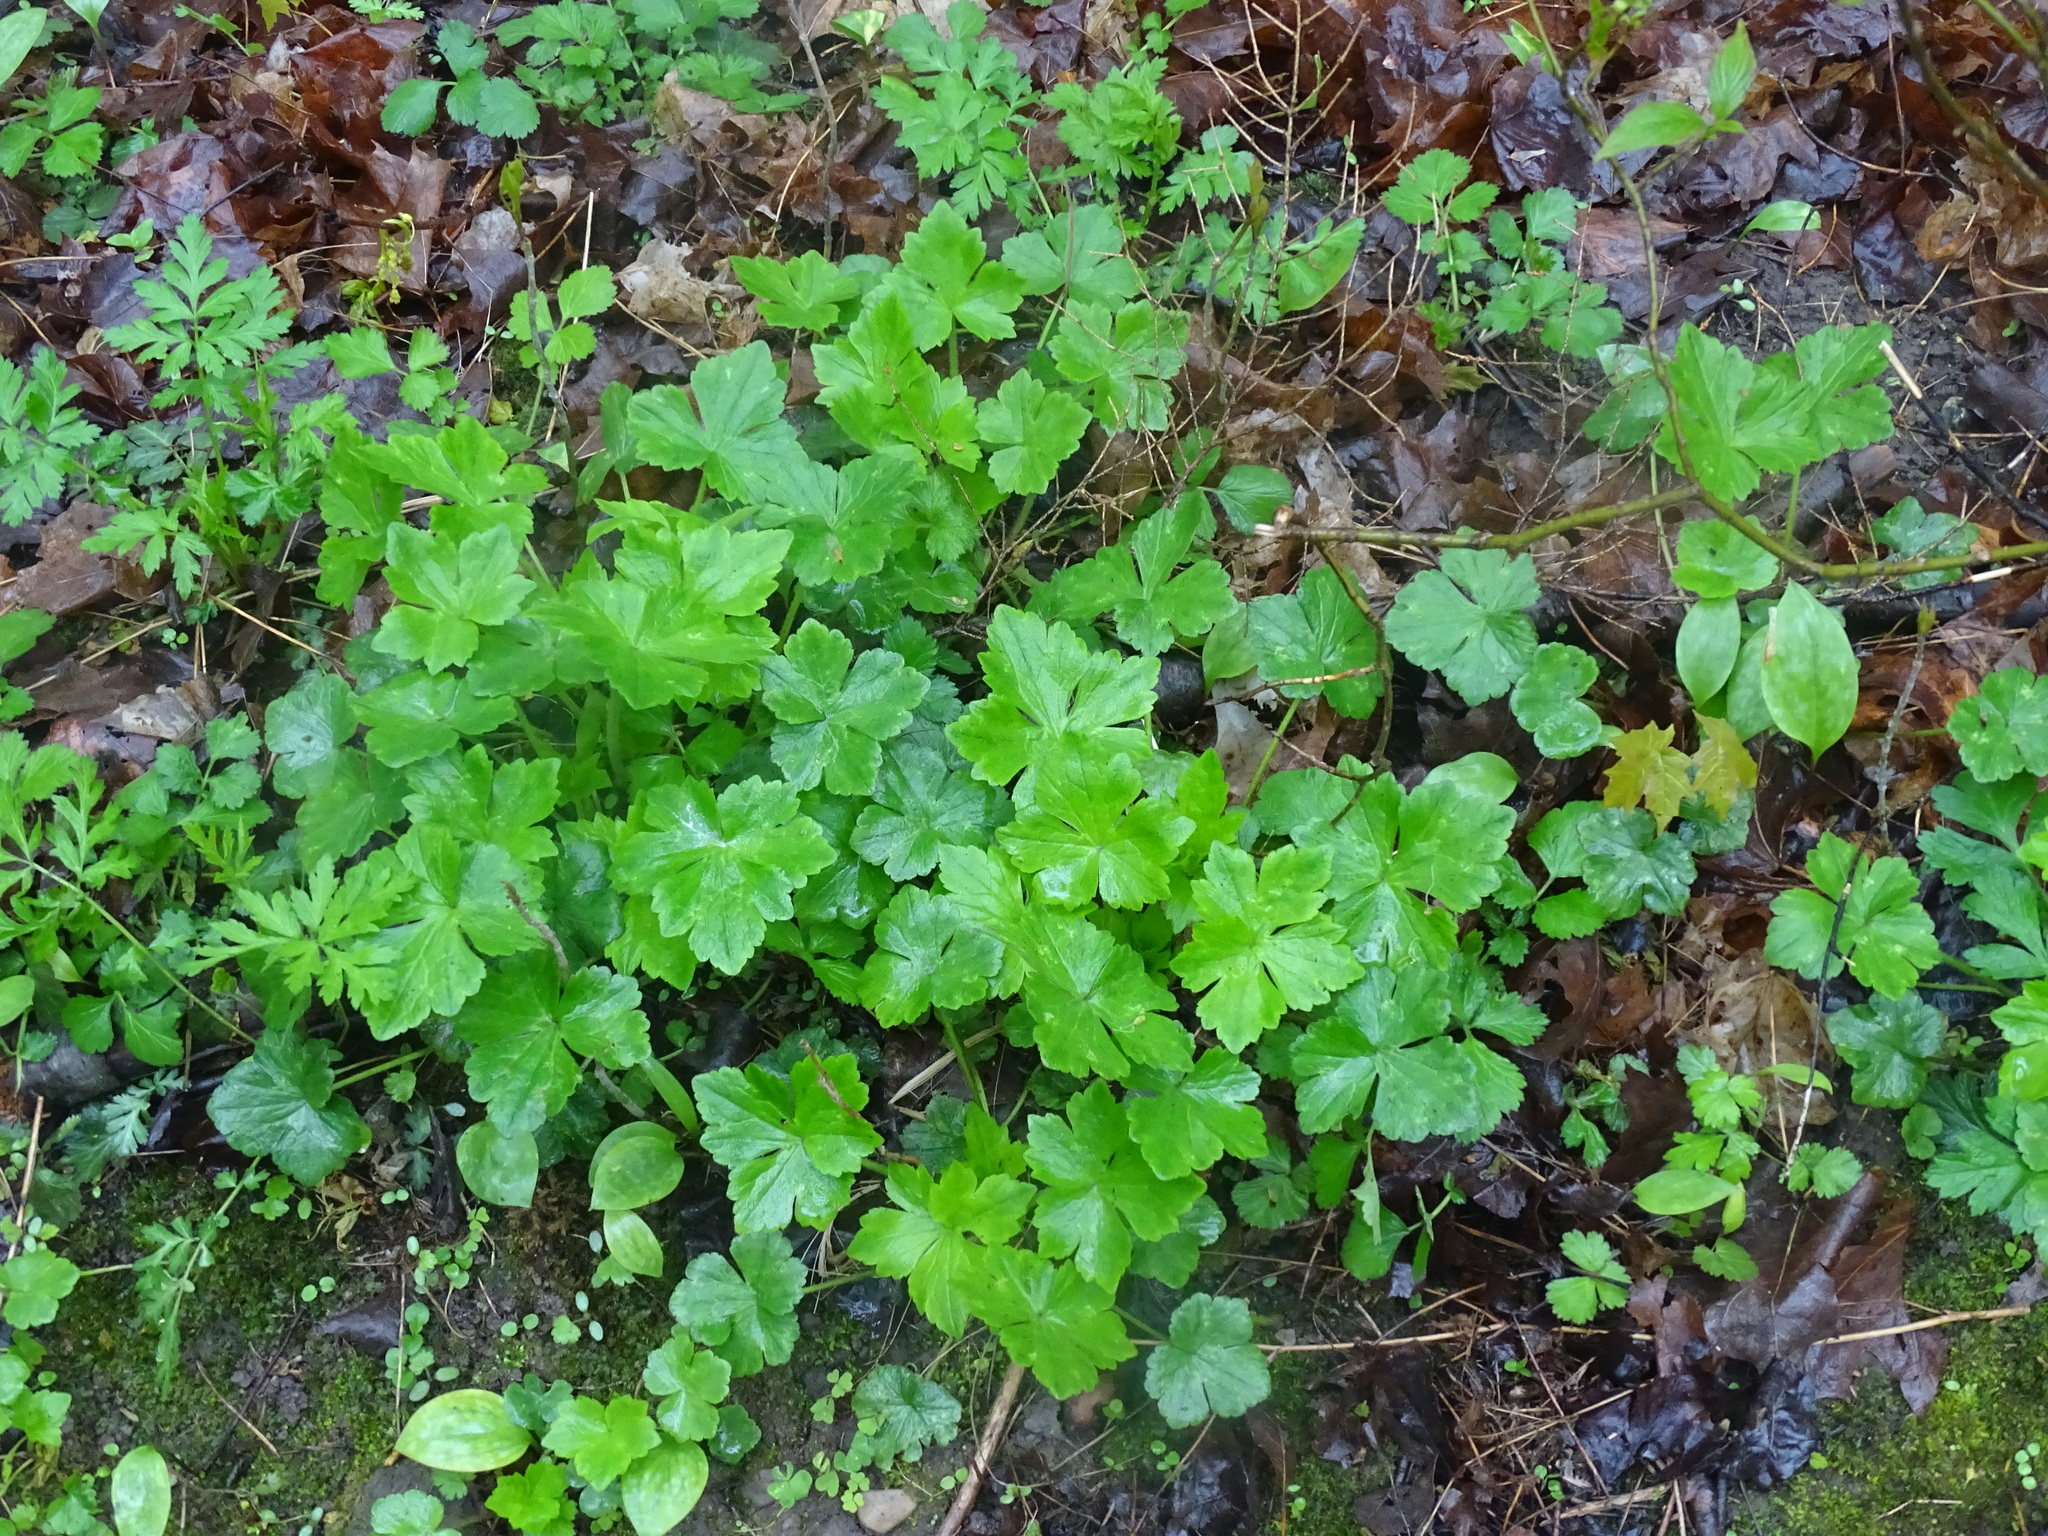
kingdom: Plantae
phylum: Tracheophyta
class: Magnoliopsida
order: Ranunculales
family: Ranunculaceae
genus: Ranunculus
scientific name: Ranunculus recurvatus
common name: Blisterwort
